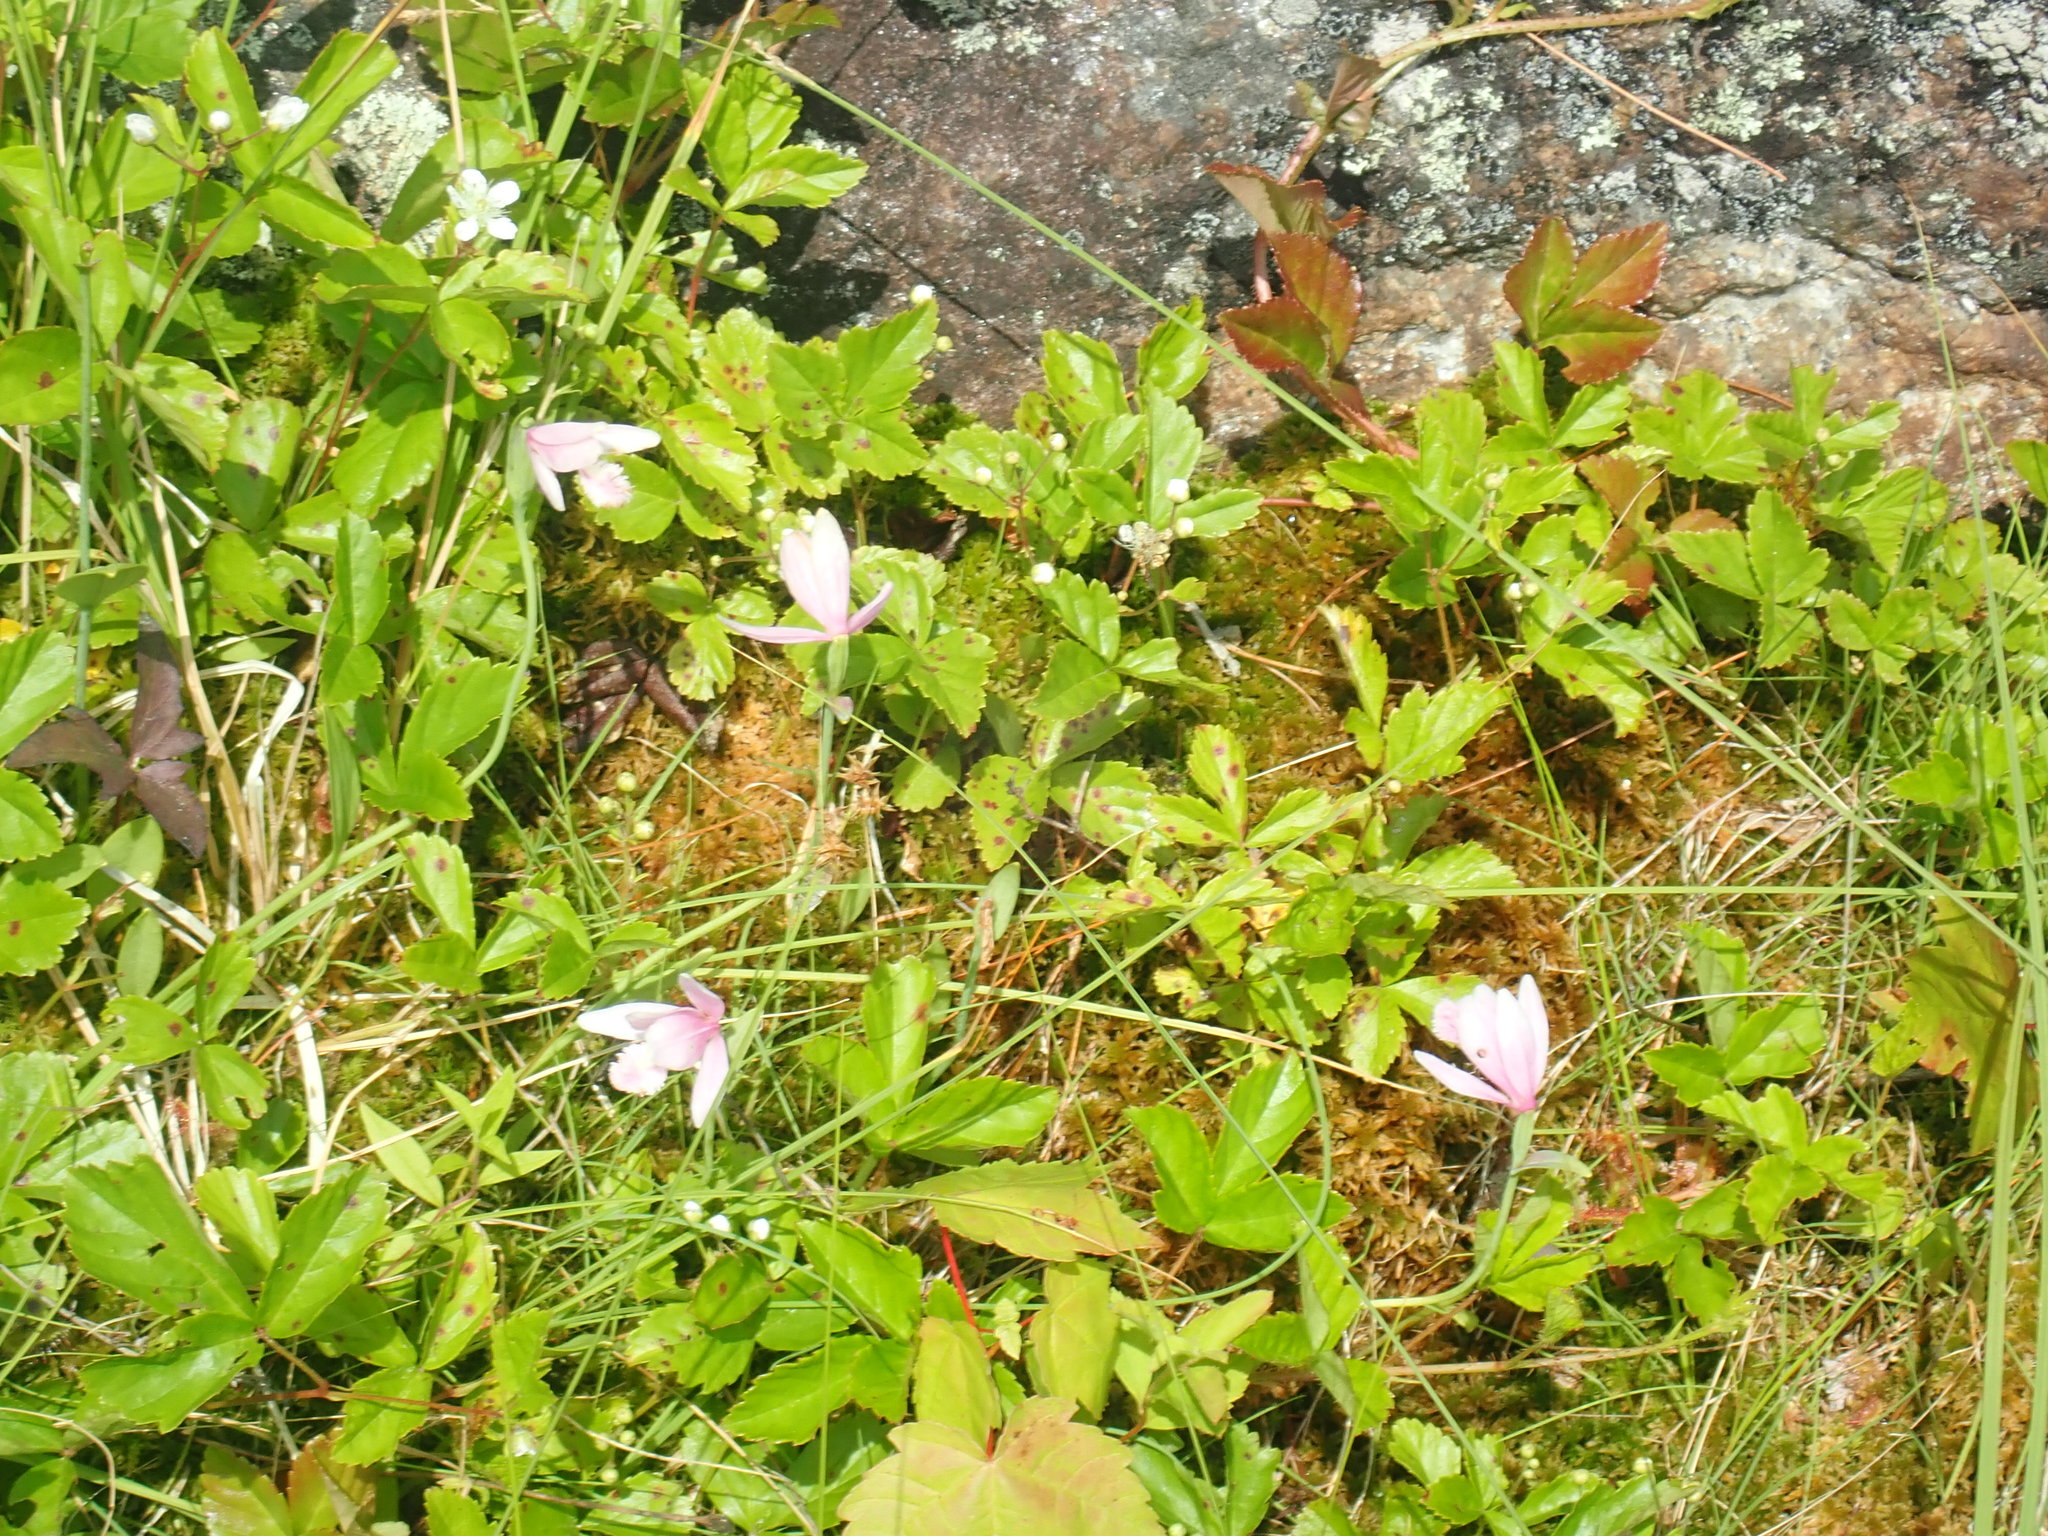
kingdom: Plantae
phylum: Tracheophyta
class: Liliopsida
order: Asparagales
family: Orchidaceae
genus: Pogonia
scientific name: Pogonia ophioglossoides
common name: Rose pogonia
